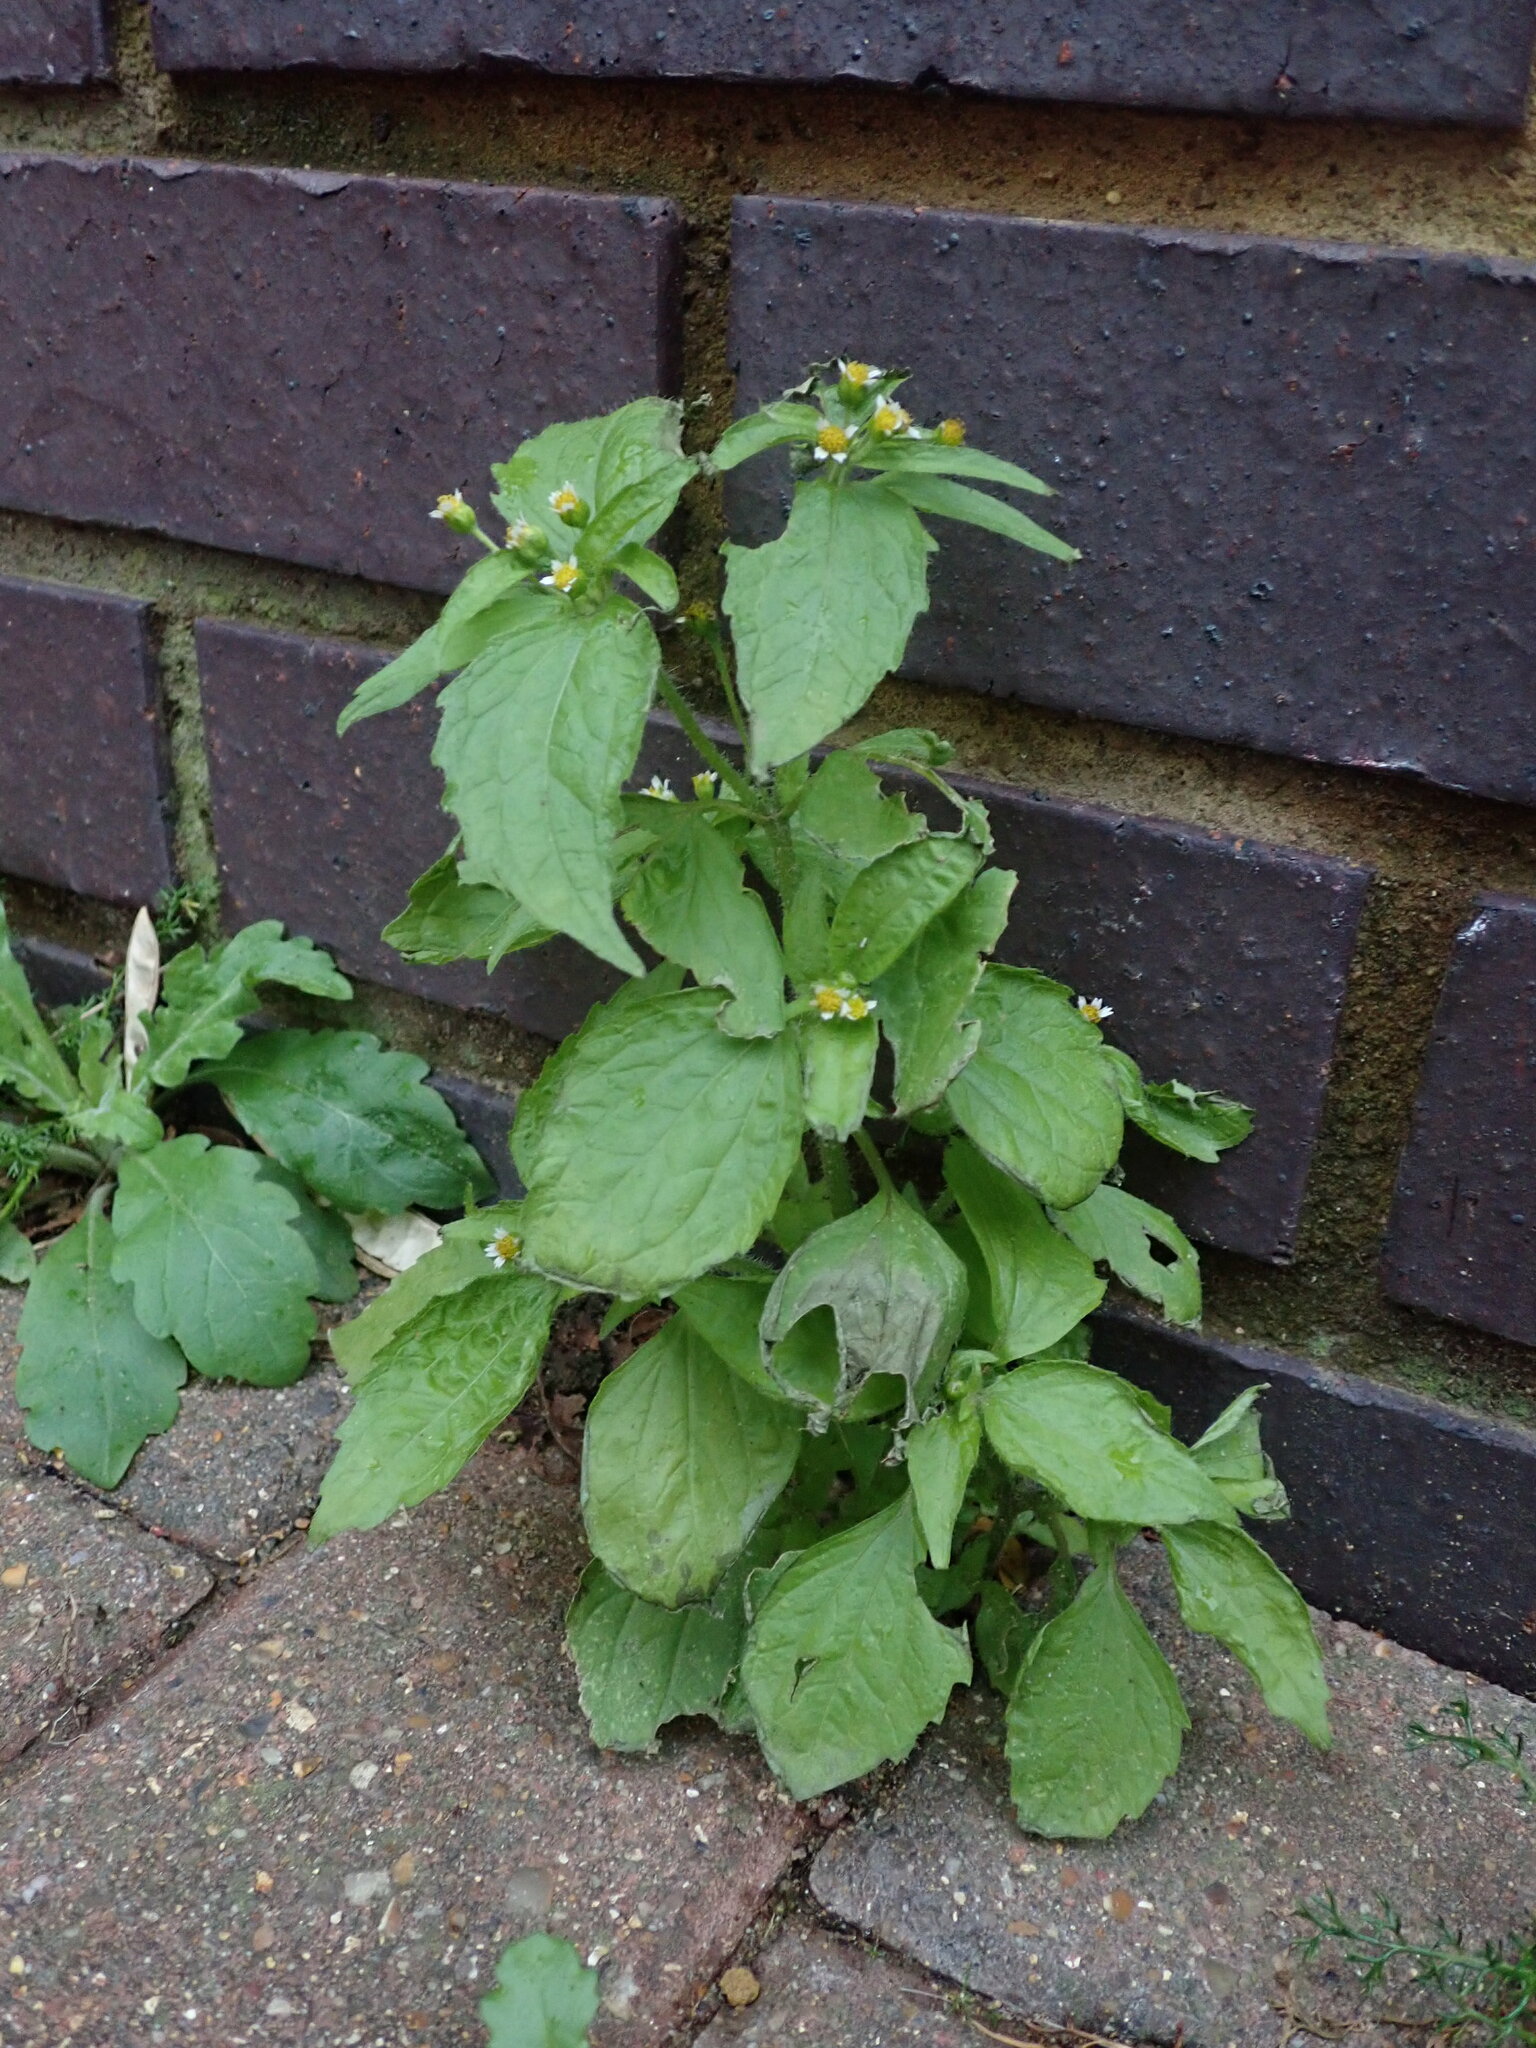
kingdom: Plantae
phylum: Tracheophyta
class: Magnoliopsida
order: Asterales
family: Asteraceae
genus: Galinsoga
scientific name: Galinsoga quadriradiata
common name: Shaggy soldier
